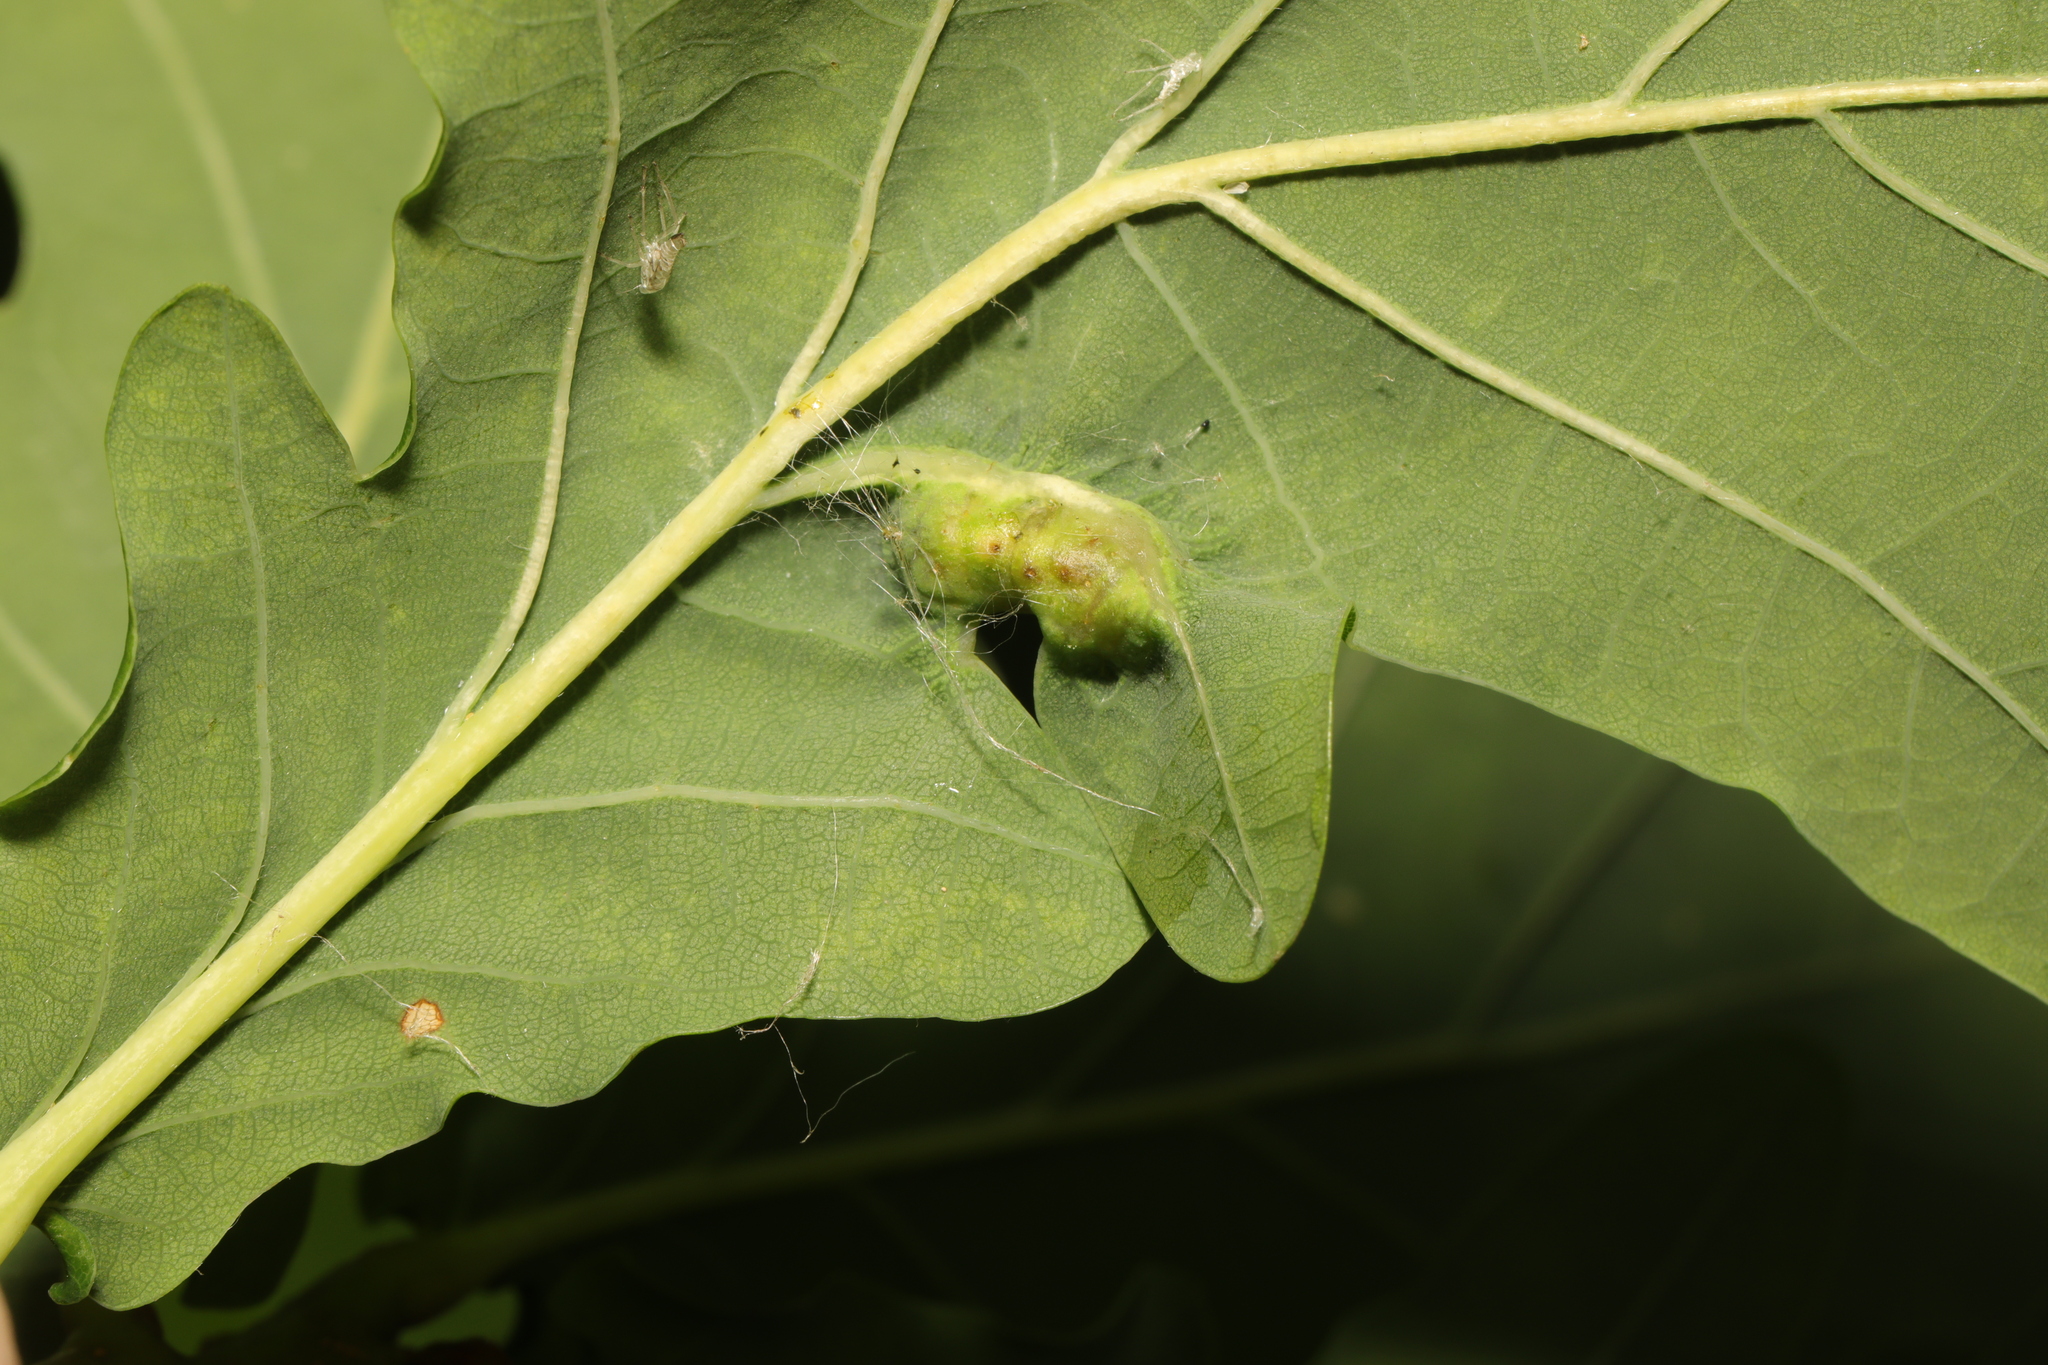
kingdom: Animalia
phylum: Arthropoda
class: Insecta
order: Hymenoptera
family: Cynipidae
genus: Andricus
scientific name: Andricus curvator
